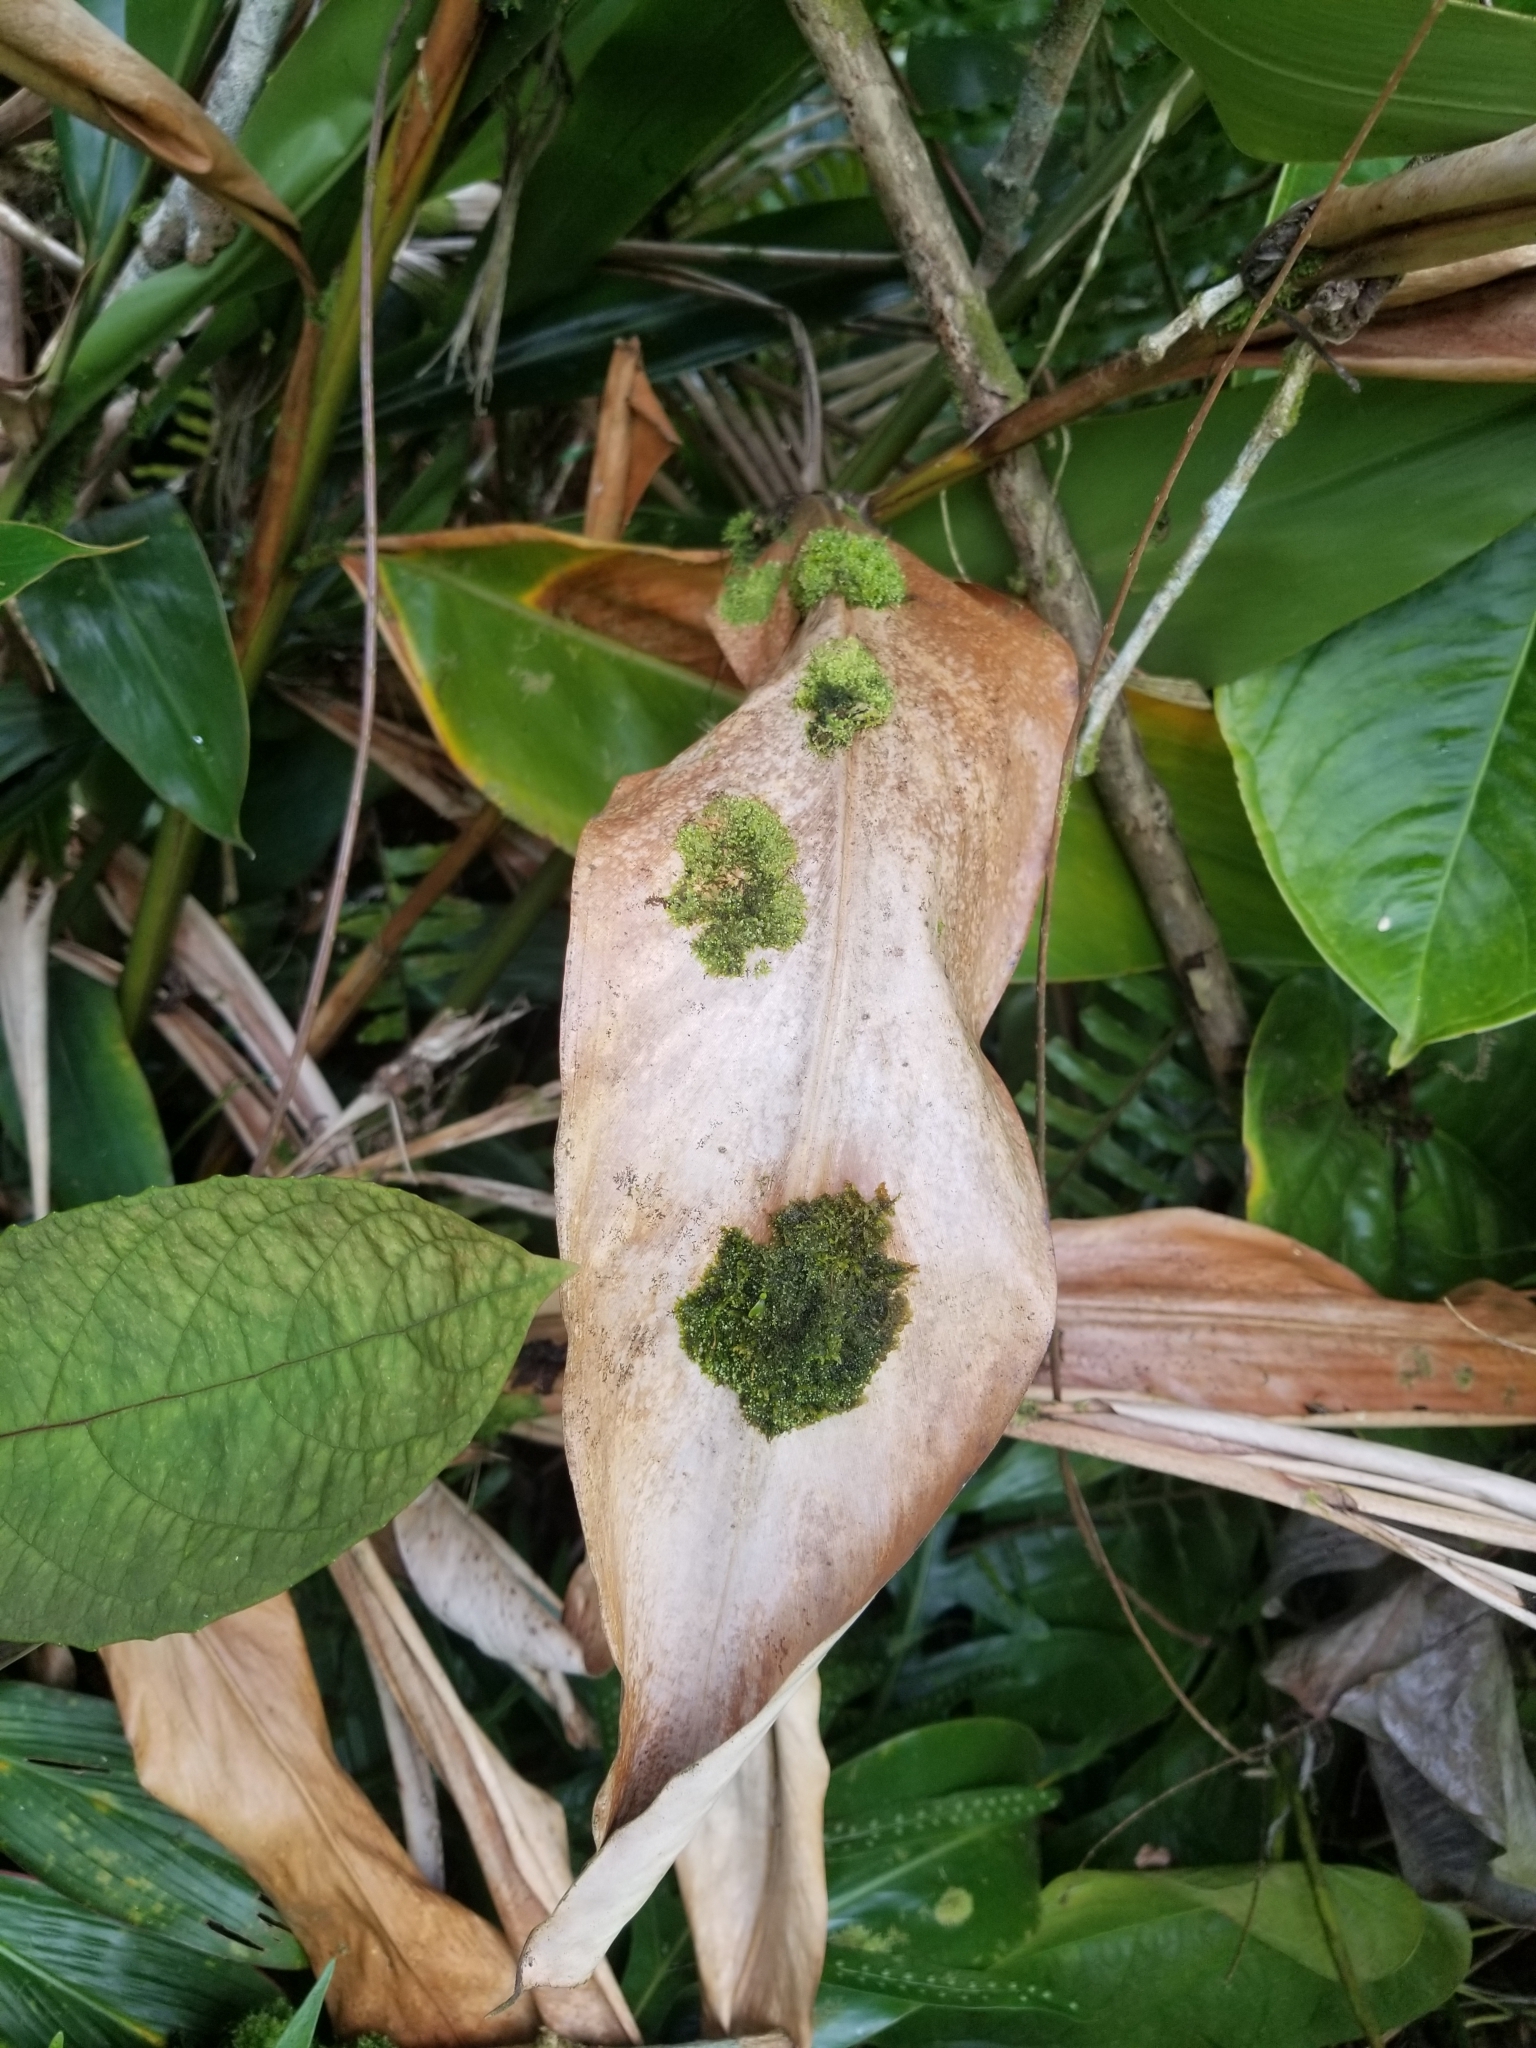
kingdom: Plantae
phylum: Marchantiophyta
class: Jungermanniopsida
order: Porellales
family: Lejeuneaceae
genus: Lejeunea
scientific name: Lejeunea flava
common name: Yellow pouncewort
